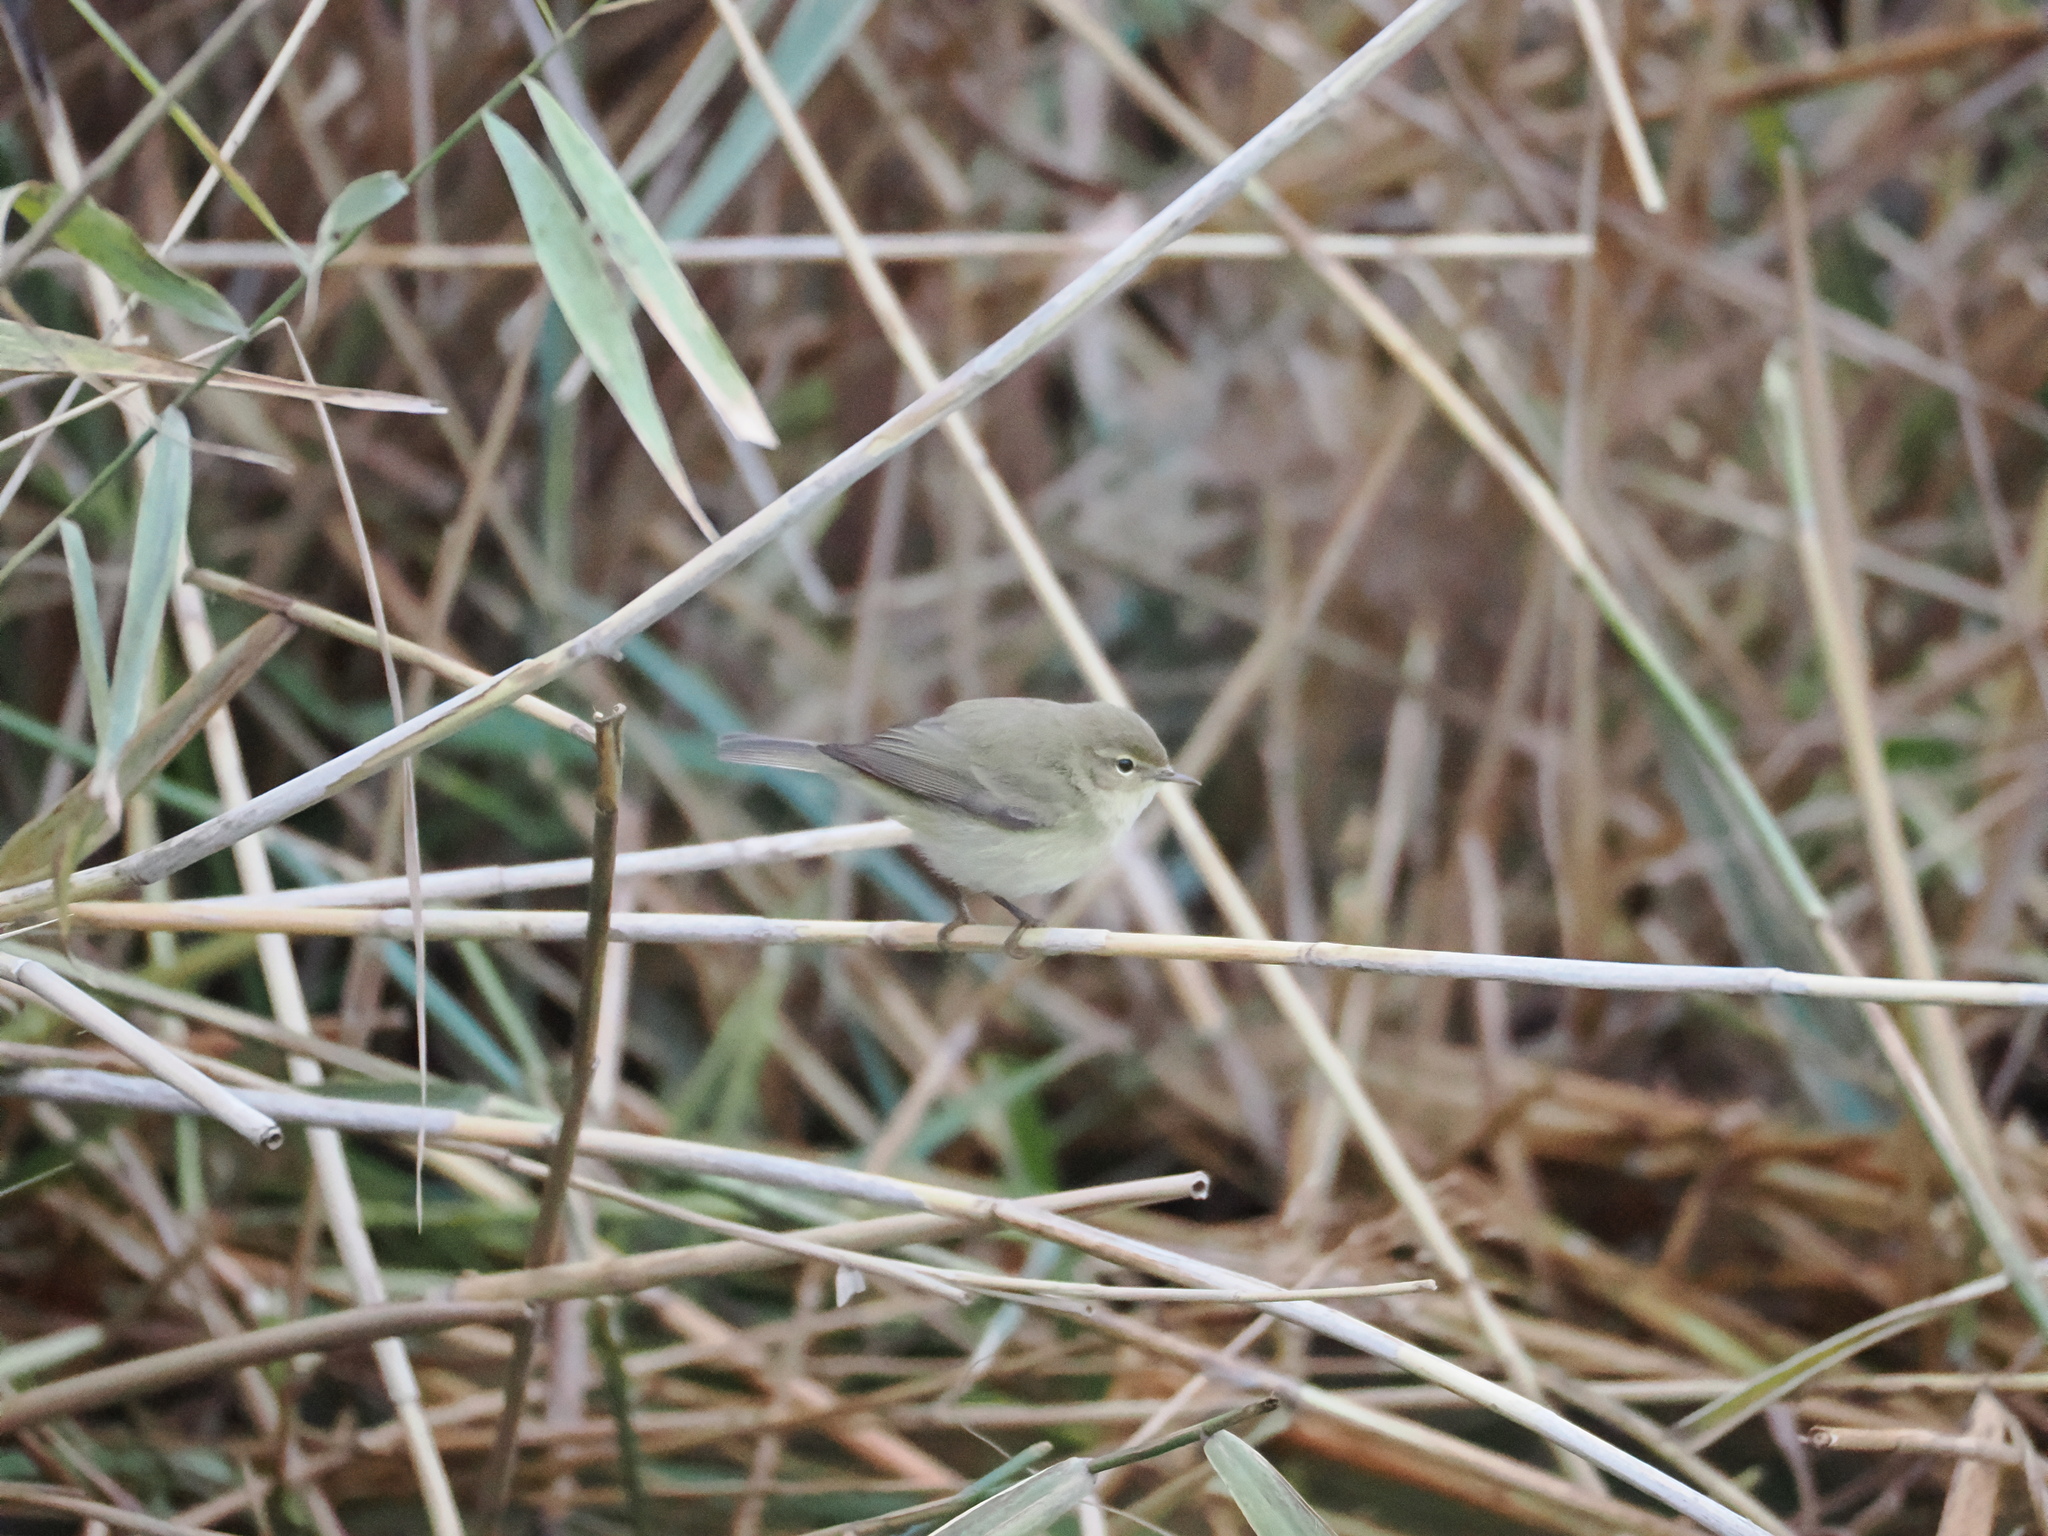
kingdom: Animalia
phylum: Chordata
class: Aves
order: Passeriformes
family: Phylloscopidae
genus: Phylloscopus
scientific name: Phylloscopus collybita
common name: Common chiffchaff
